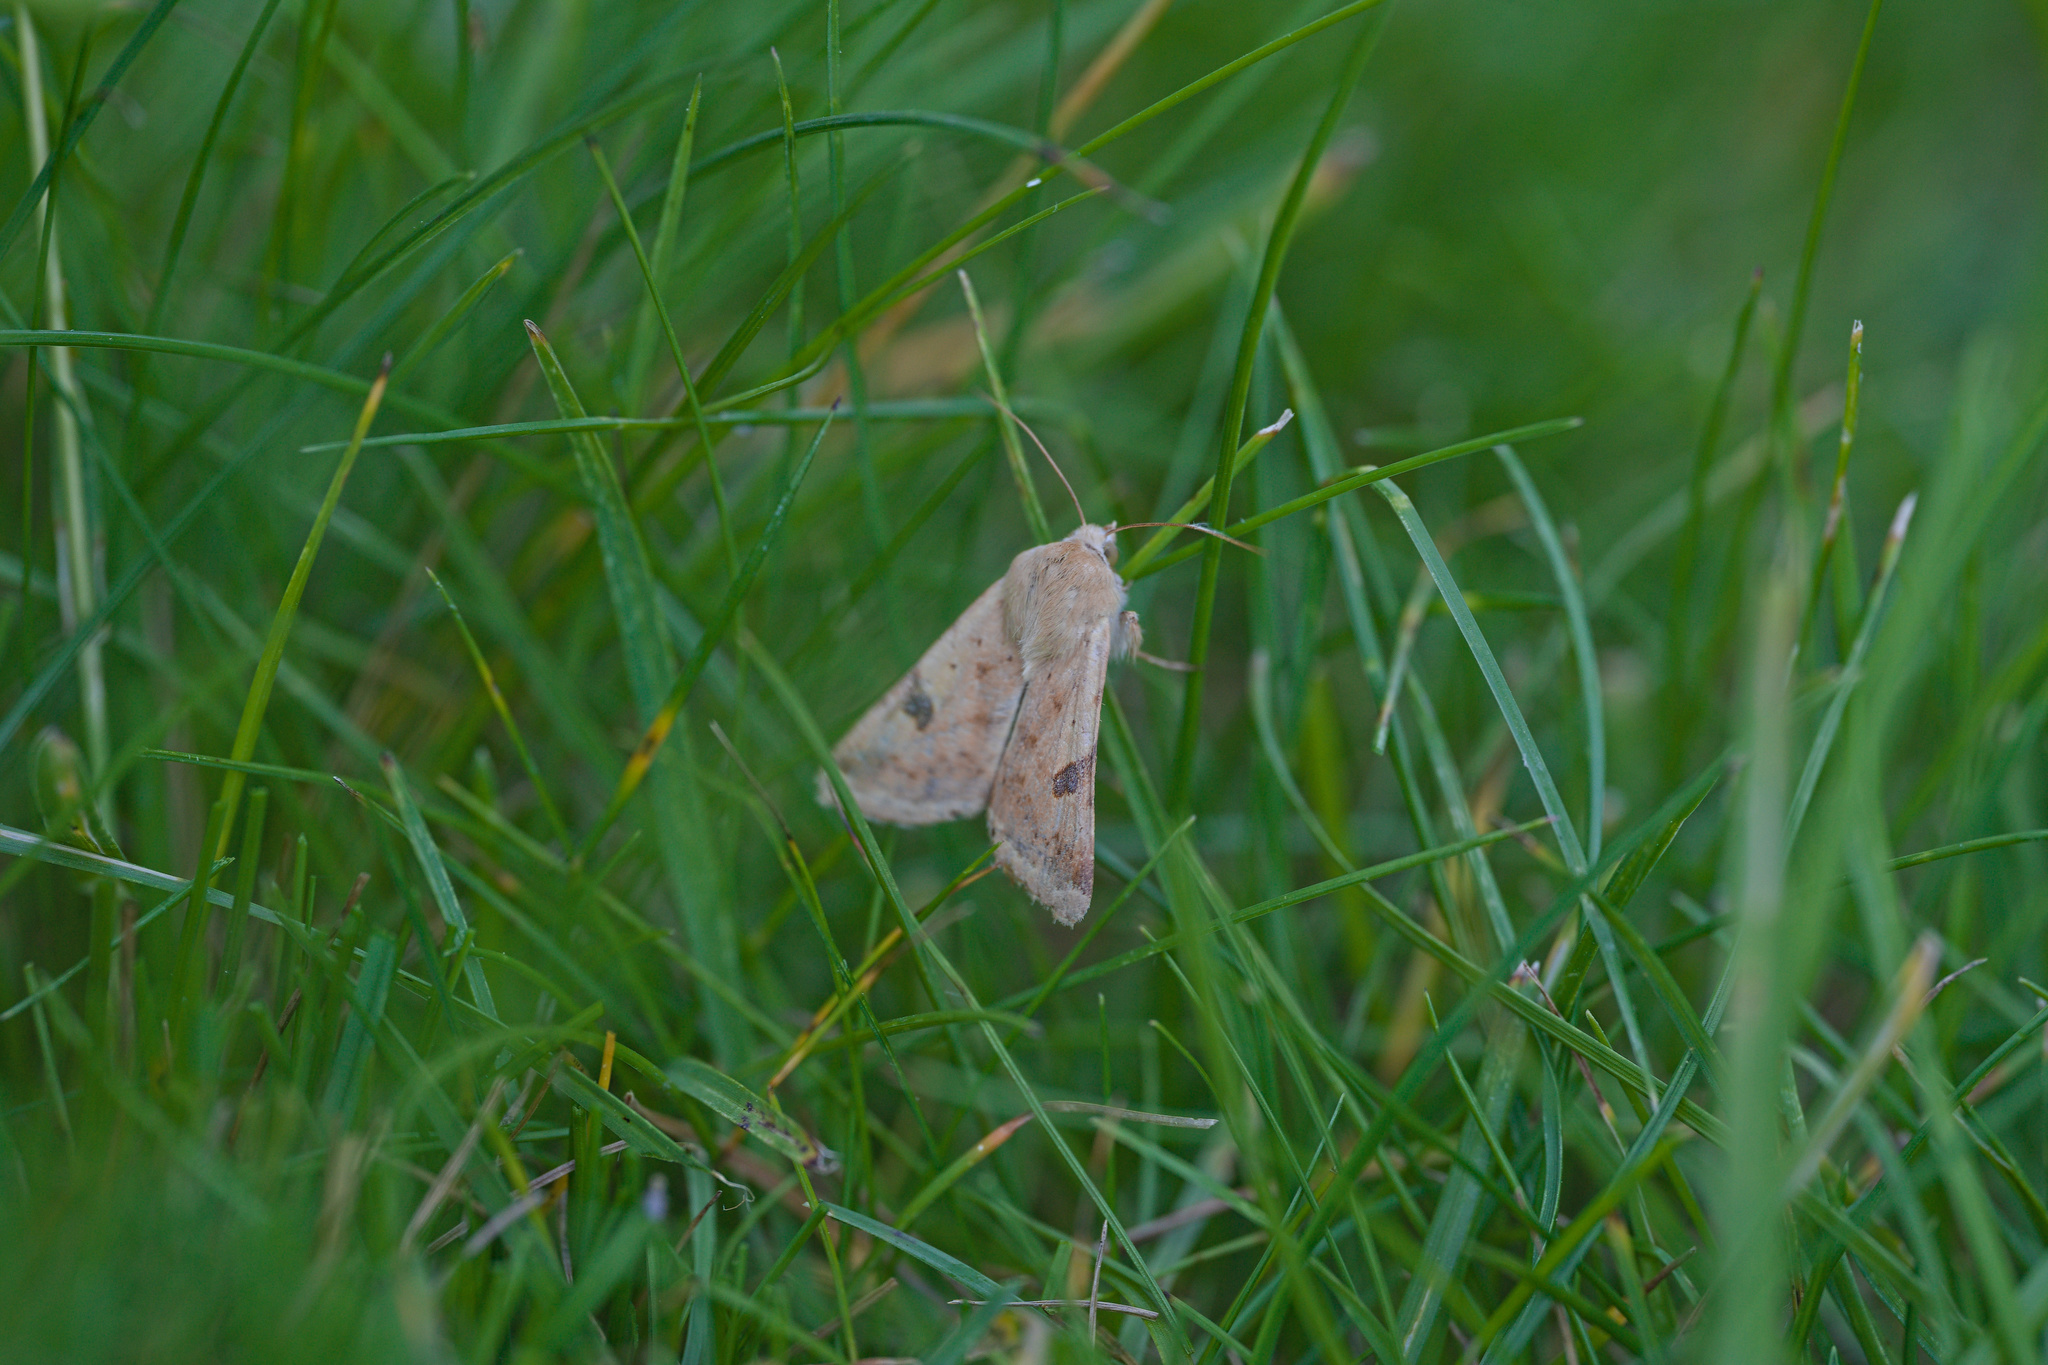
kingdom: Animalia
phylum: Arthropoda
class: Insecta
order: Lepidoptera
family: Noctuidae
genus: Heliothis
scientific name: Heliothis peltigera
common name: Bordered straw
